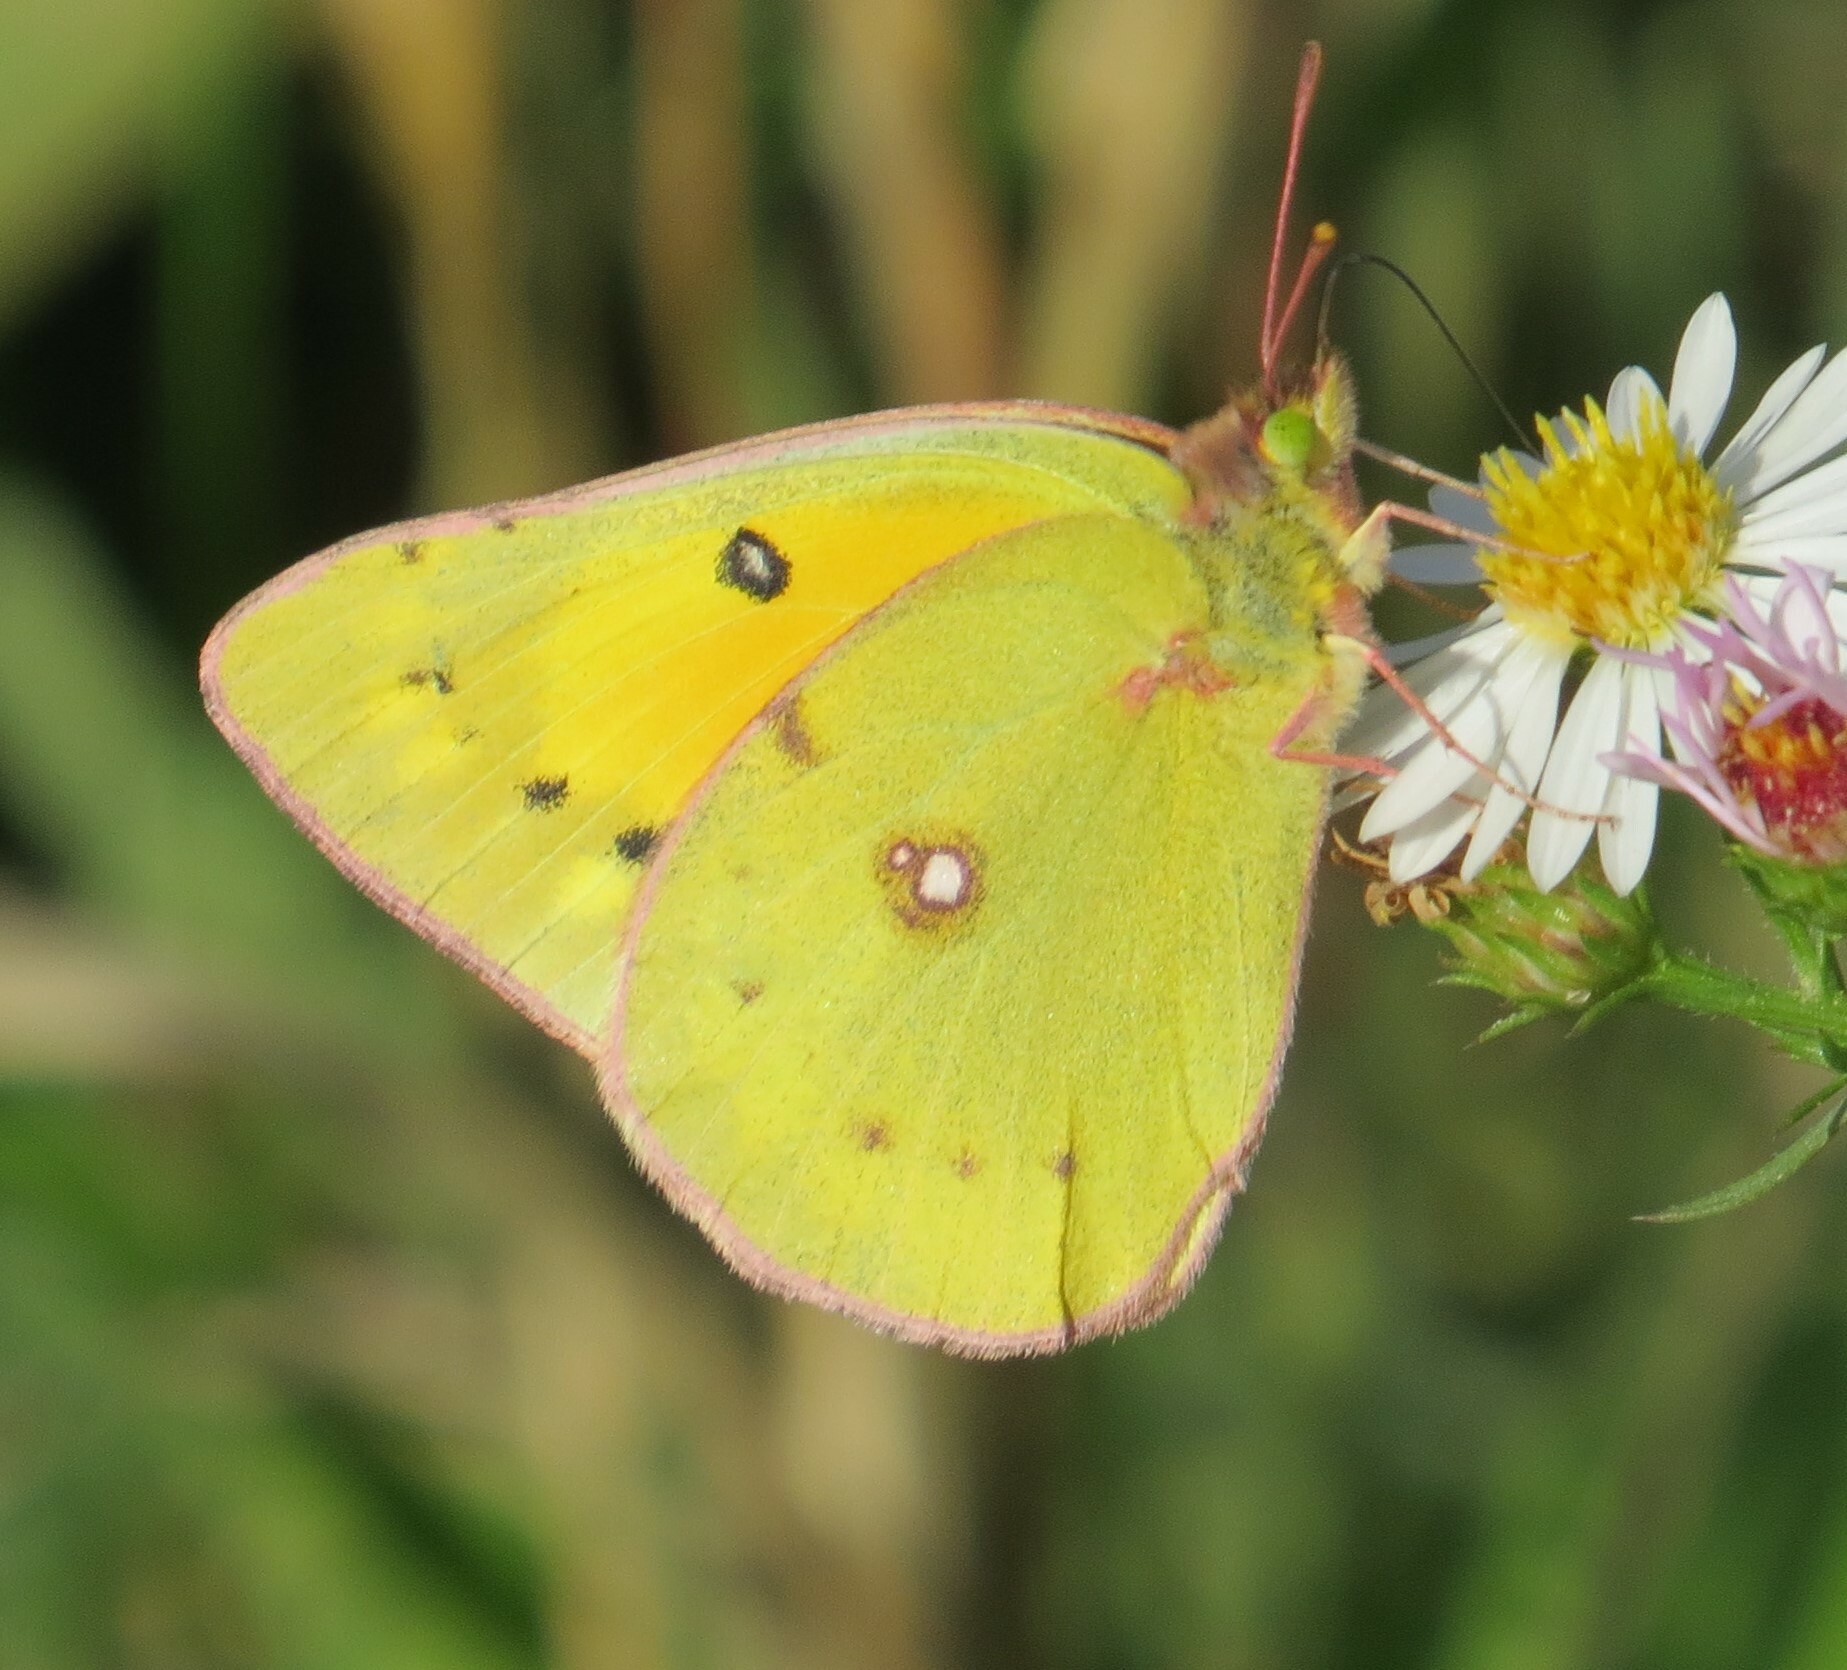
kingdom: Animalia
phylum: Arthropoda
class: Insecta
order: Lepidoptera
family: Pieridae
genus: Colias
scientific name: Colias eurytheme
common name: Alfalfa butterfly
